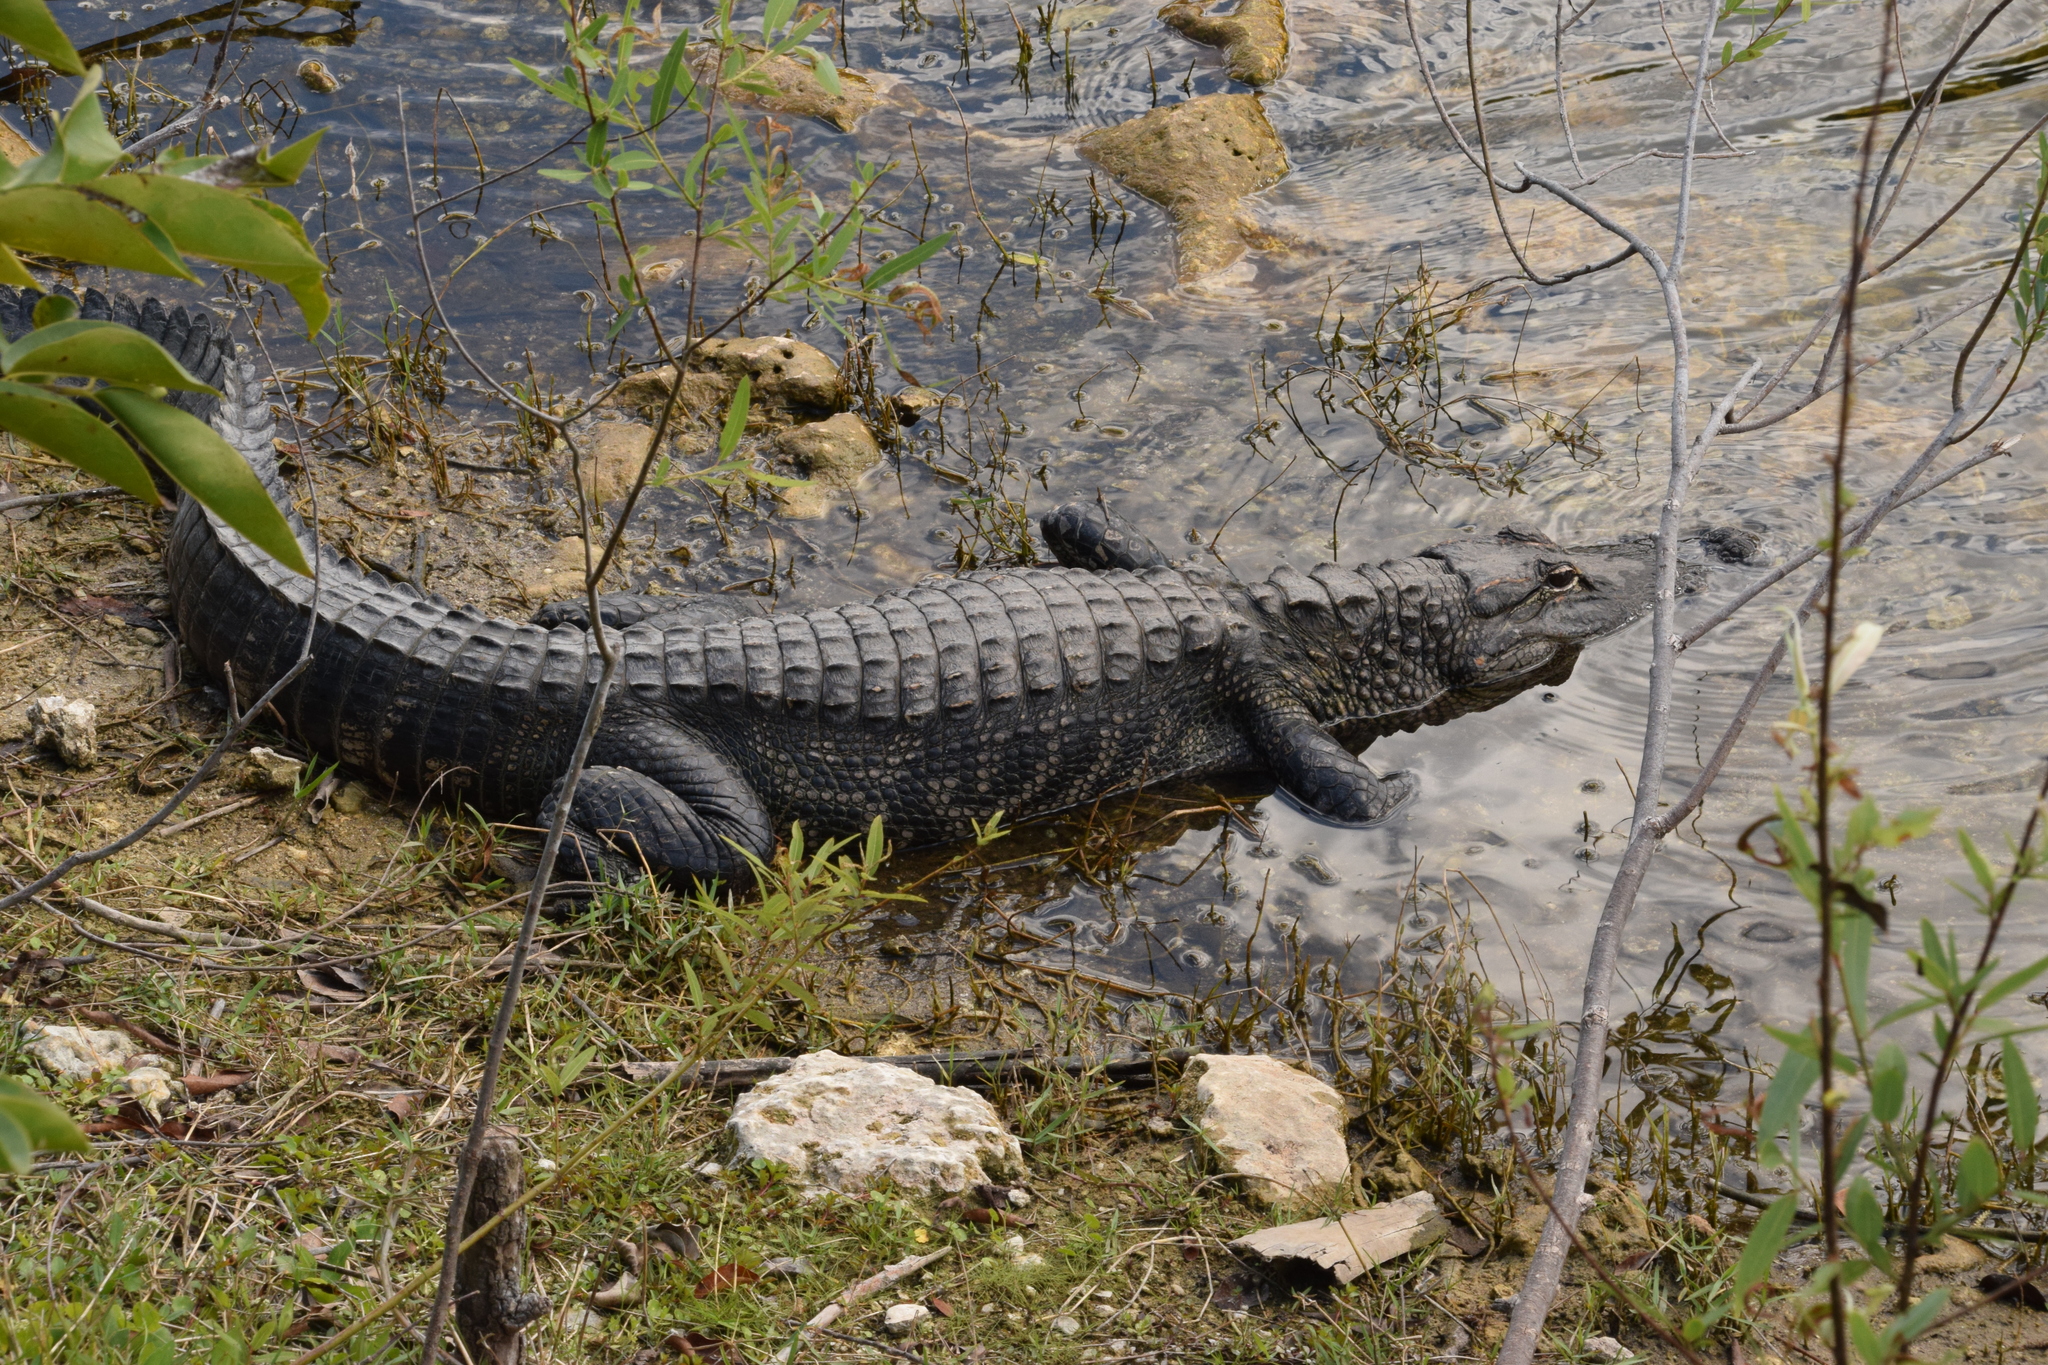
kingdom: Animalia
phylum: Chordata
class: Crocodylia
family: Alligatoridae
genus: Alligator
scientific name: Alligator mississippiensis
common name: American alligator
